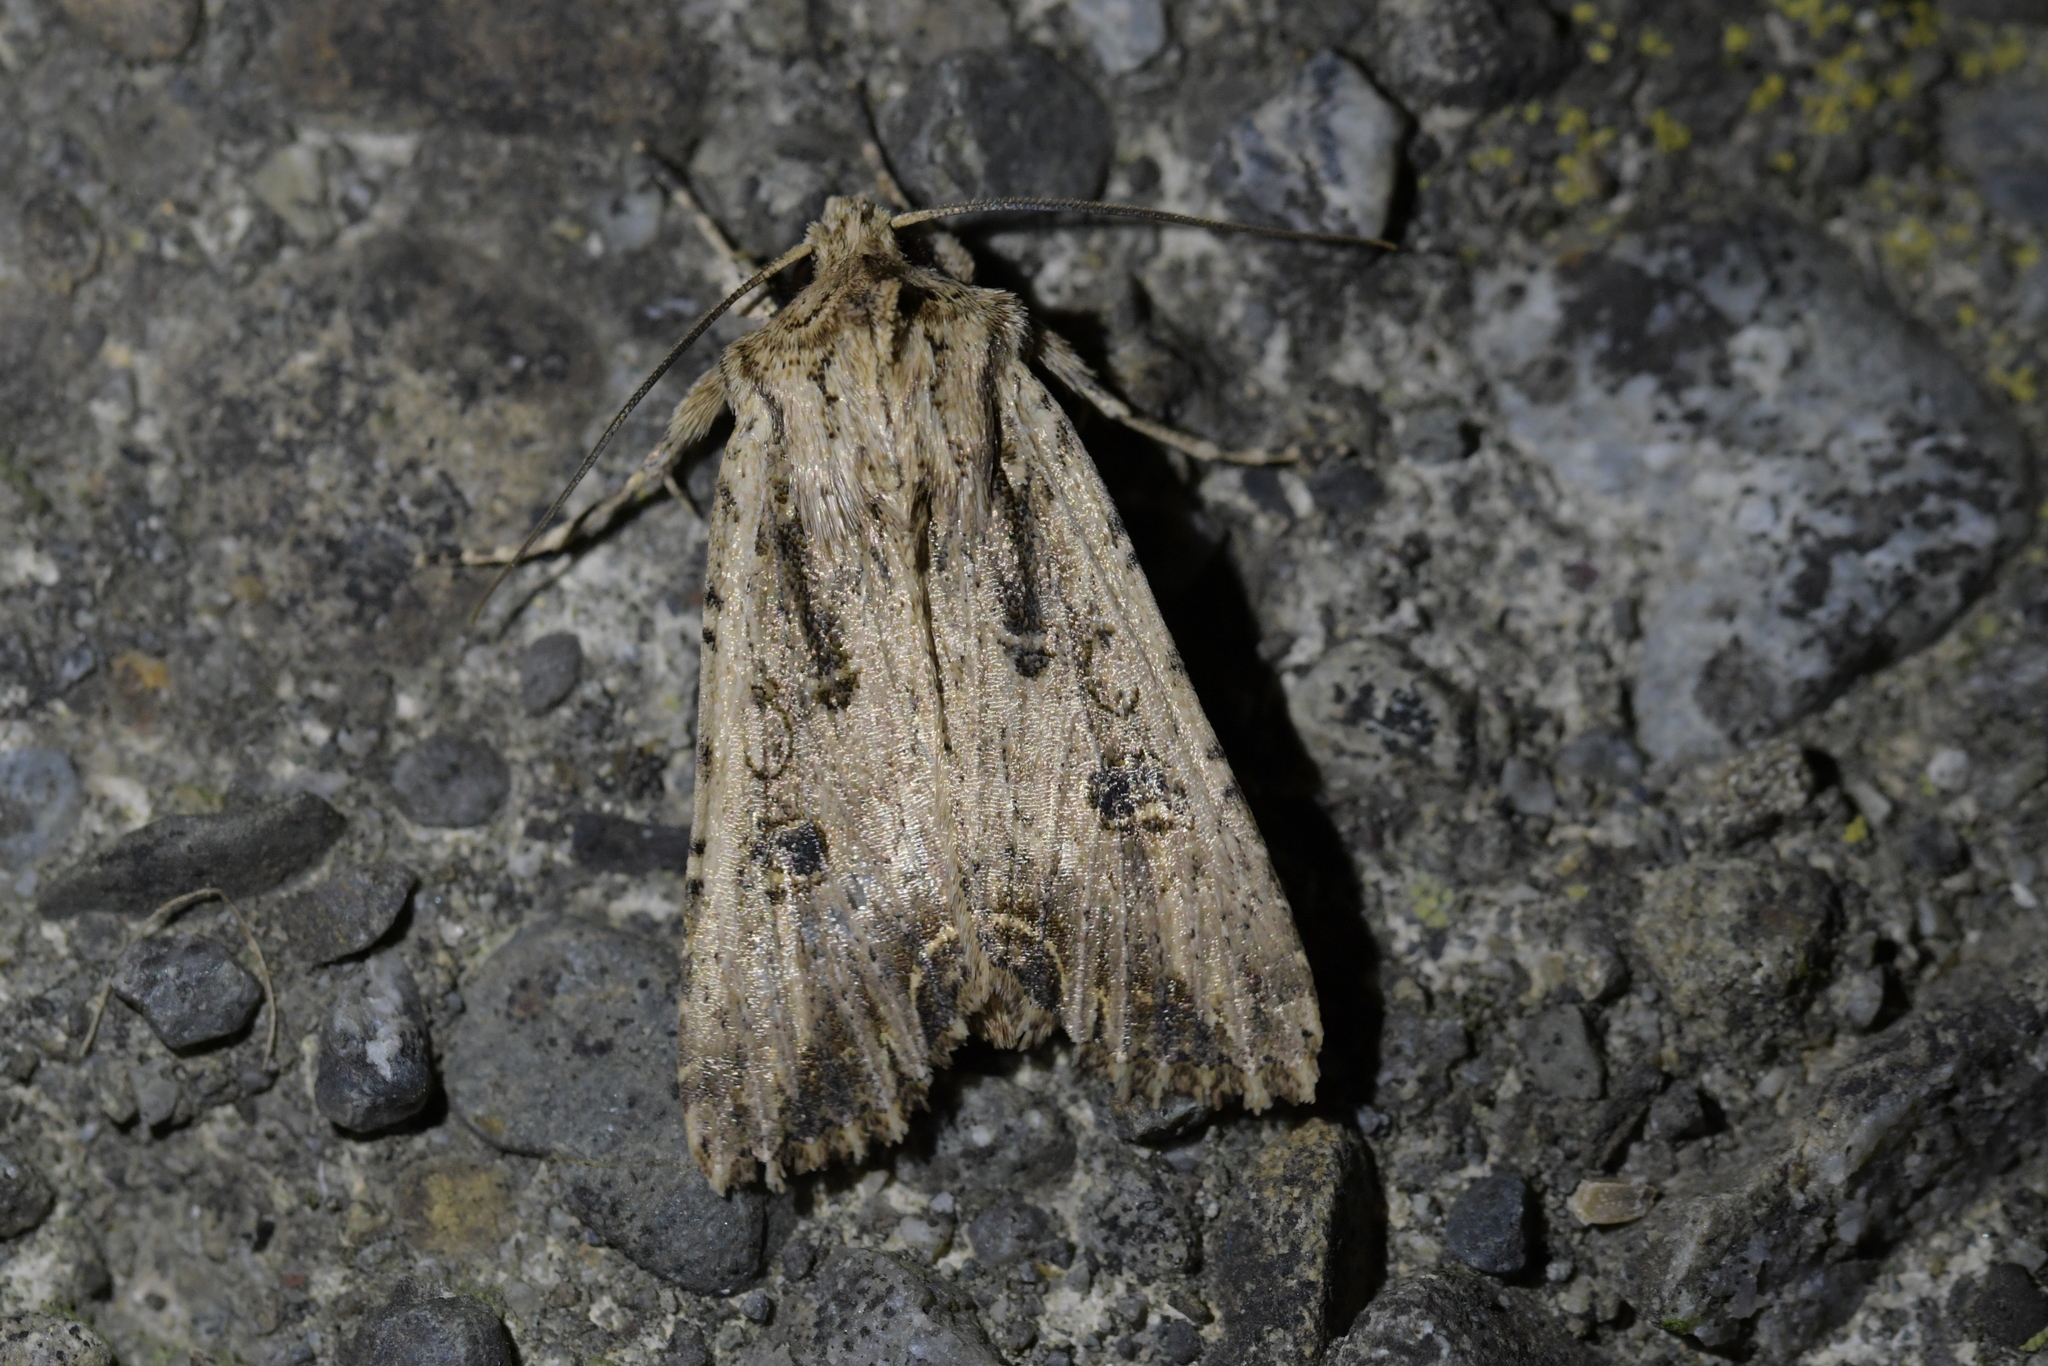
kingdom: Animalia
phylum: Arthropoda
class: Insecta
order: Lepidoptera
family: Noctuidae
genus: Ichneutica
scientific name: Ichneutica lignana
